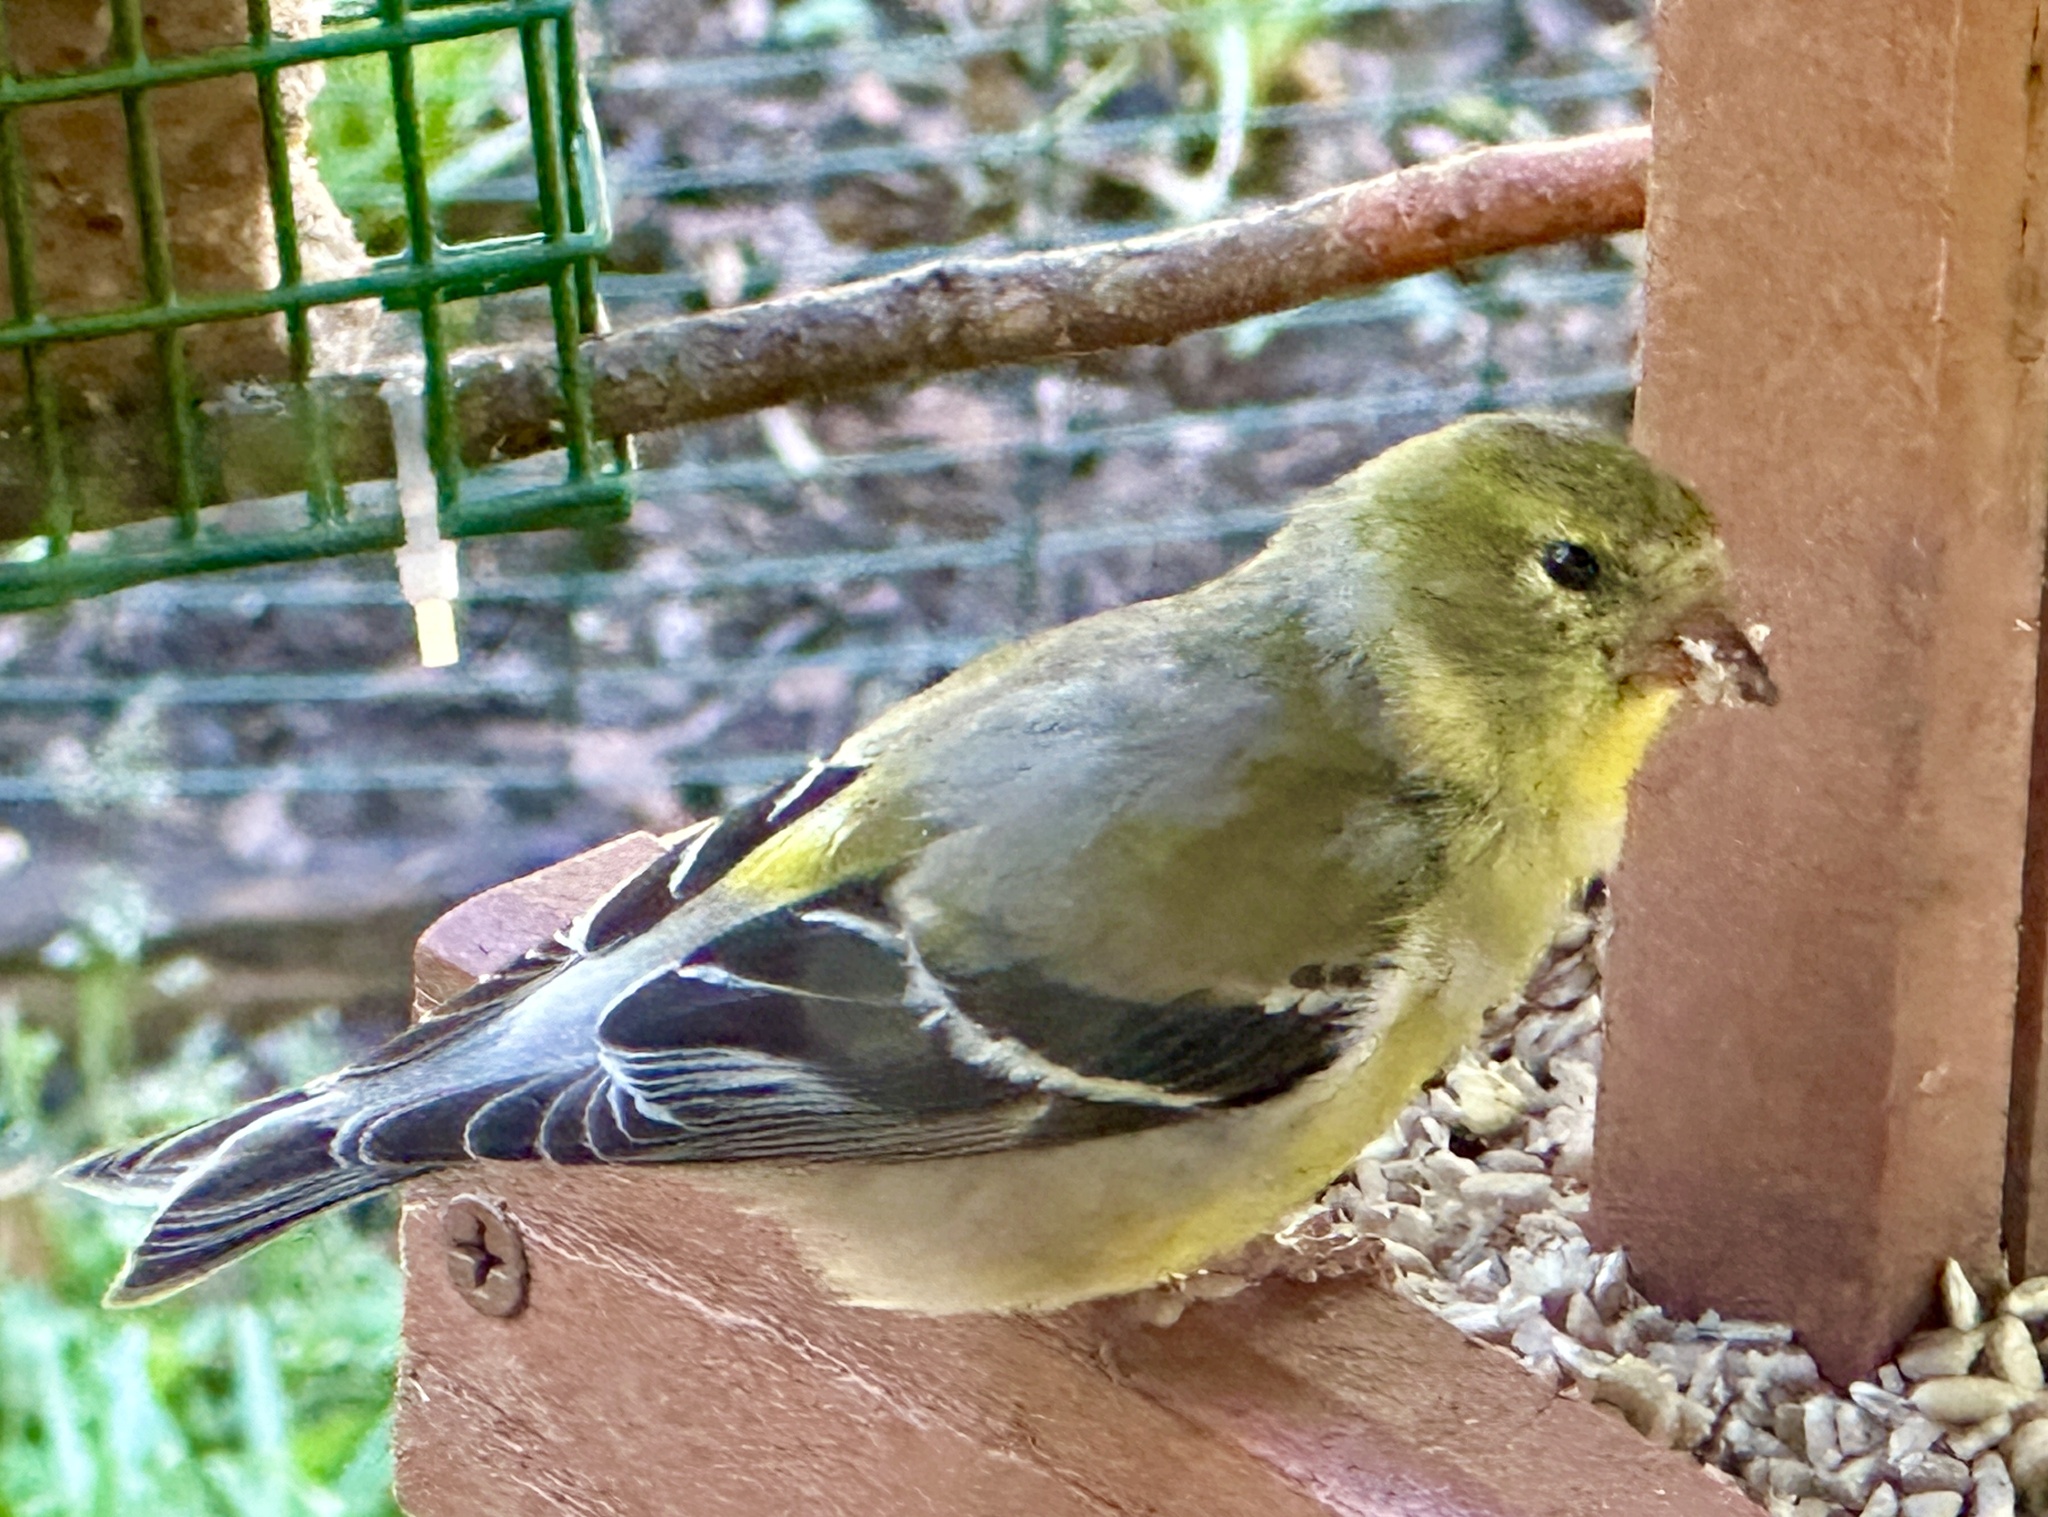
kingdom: Animalia
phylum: Chordata
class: Aves
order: Passeriformes
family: Fringillidae
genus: Spinus
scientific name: Spinus tristis
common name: American goldfinch
